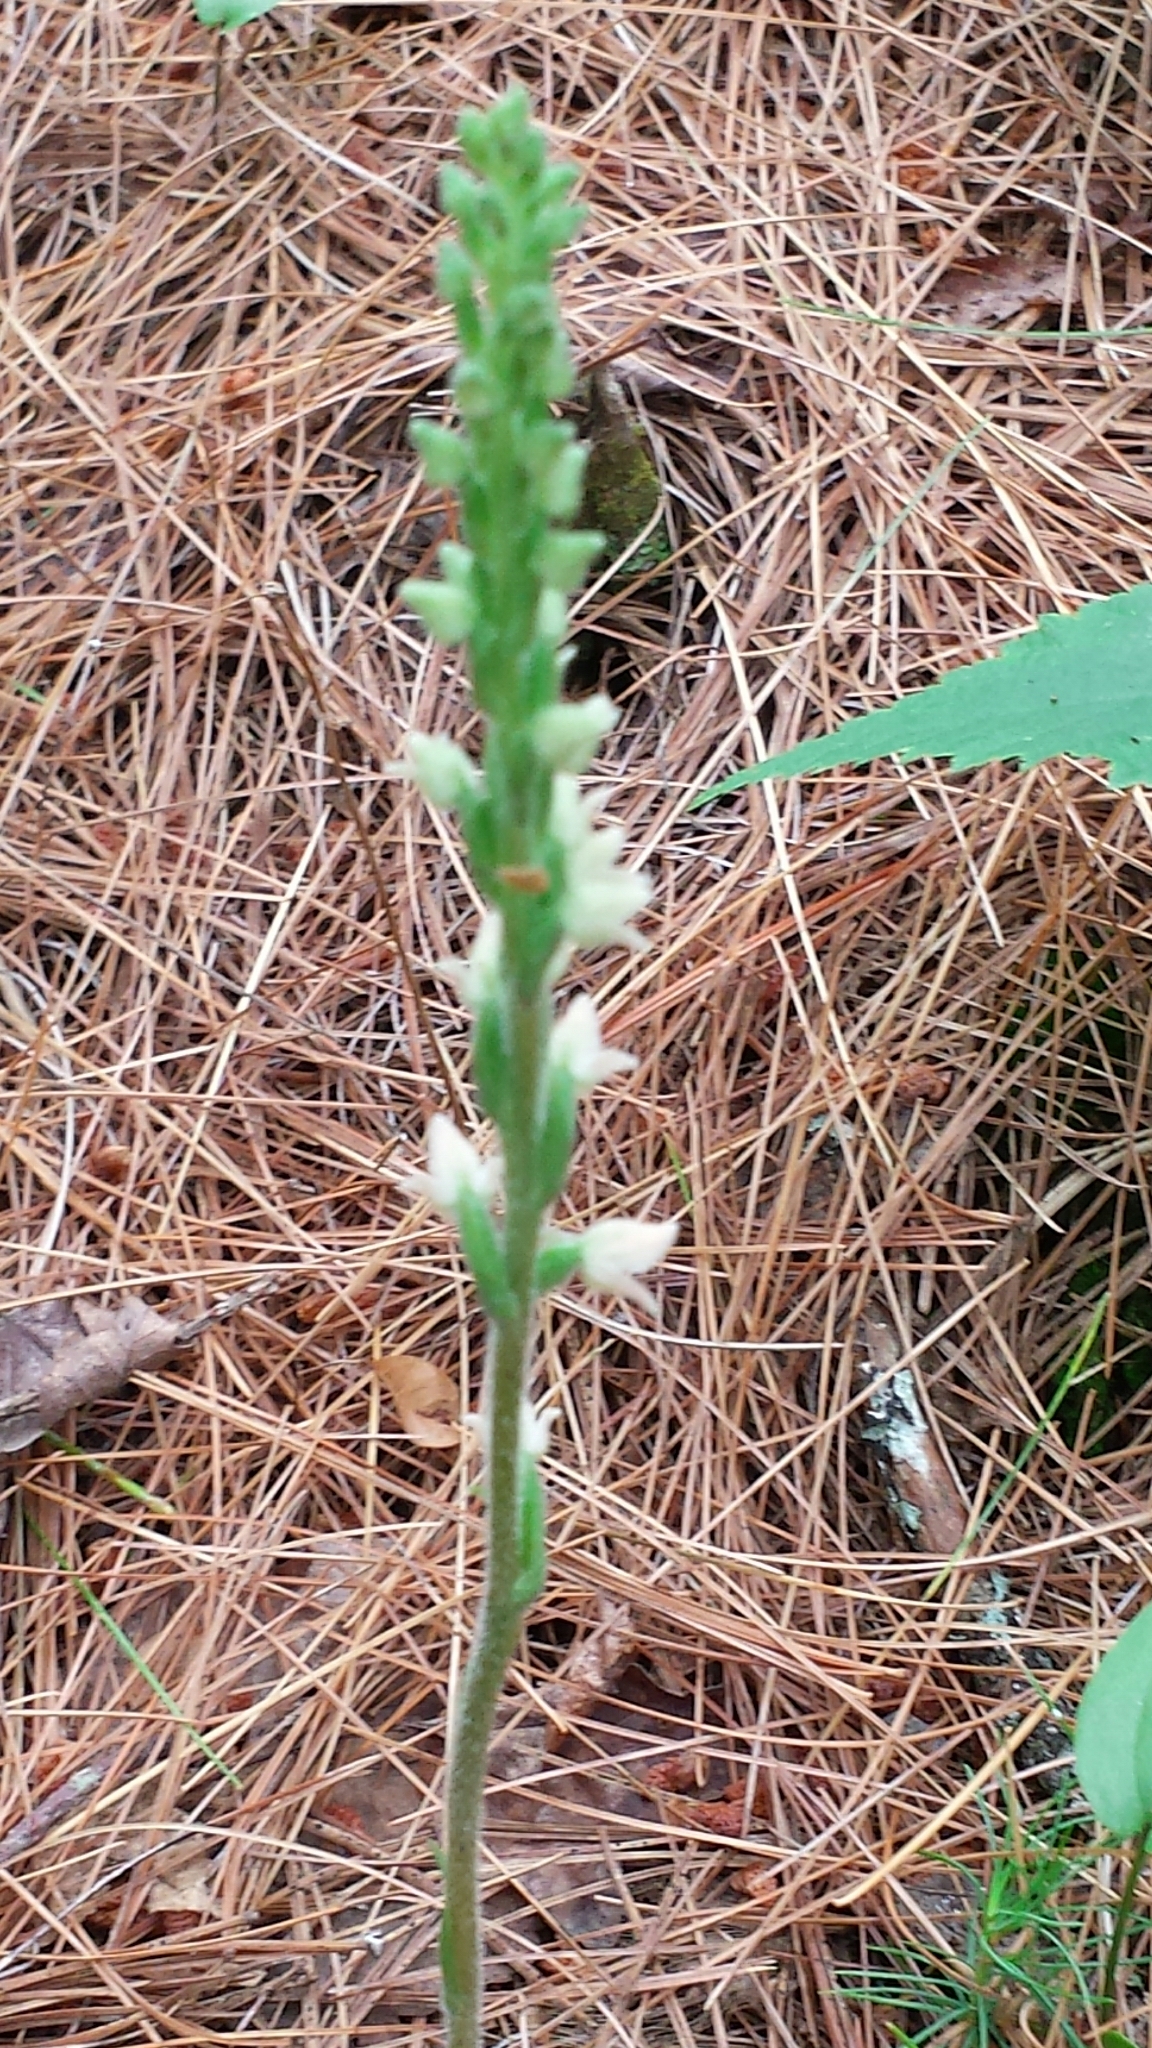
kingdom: Plantae
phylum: Tracheophyta
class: Liliopsida
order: Asparagales
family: Orchidaceae
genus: Goodyera
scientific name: Goodyera tesselata
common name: Checkered rattlesnake-plantain
